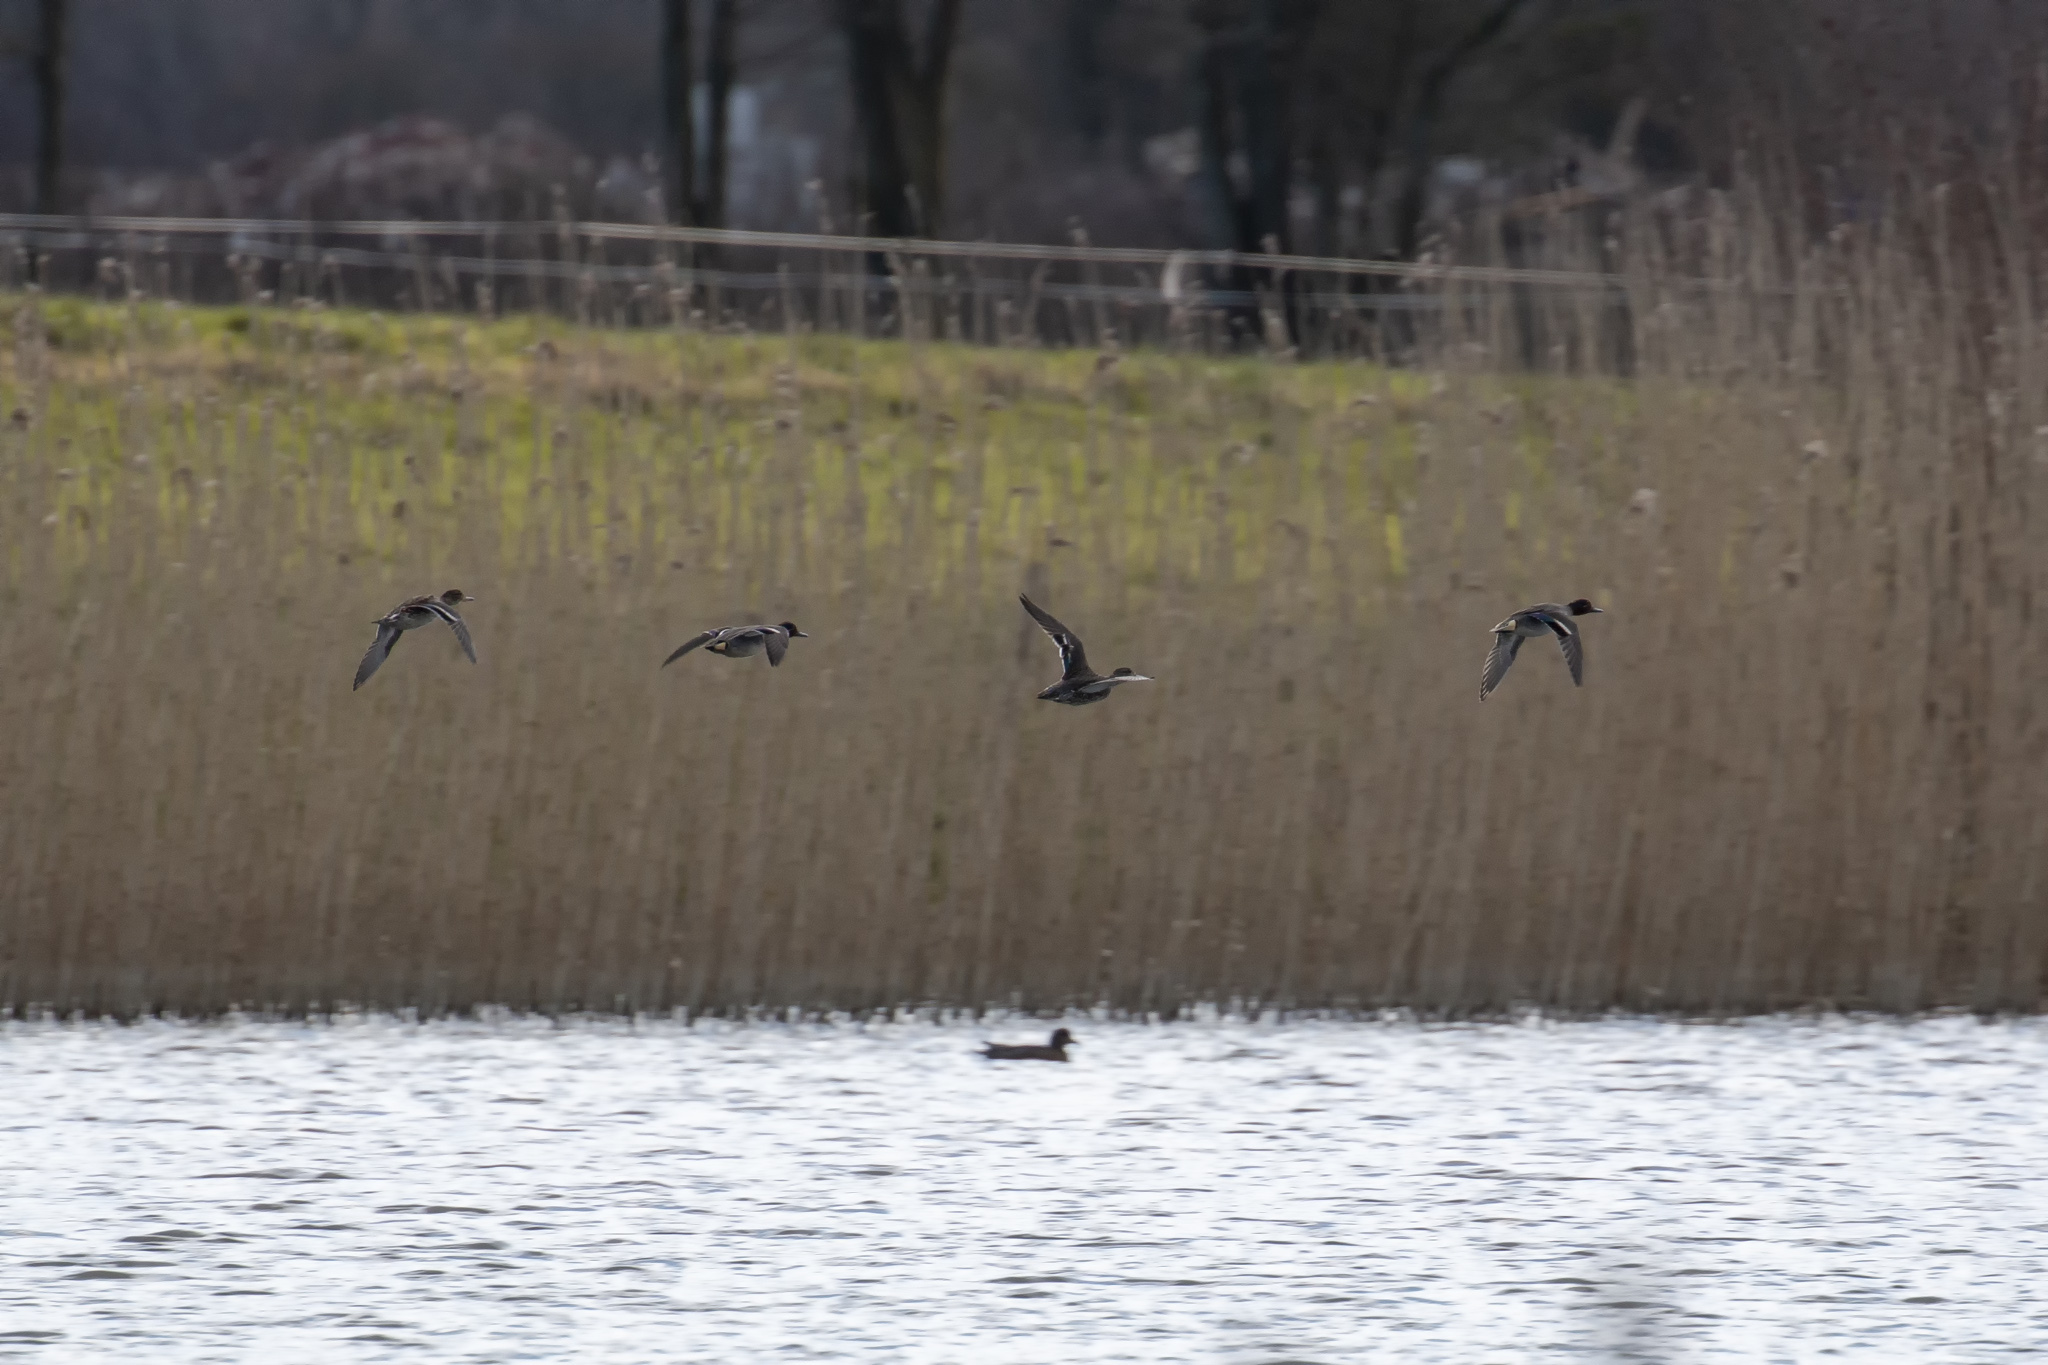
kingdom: Animalia
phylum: Chordata
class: Aves
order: Anseriformes
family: Anatidae
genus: Anas
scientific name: Anas crecca
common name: Eurasian teal
